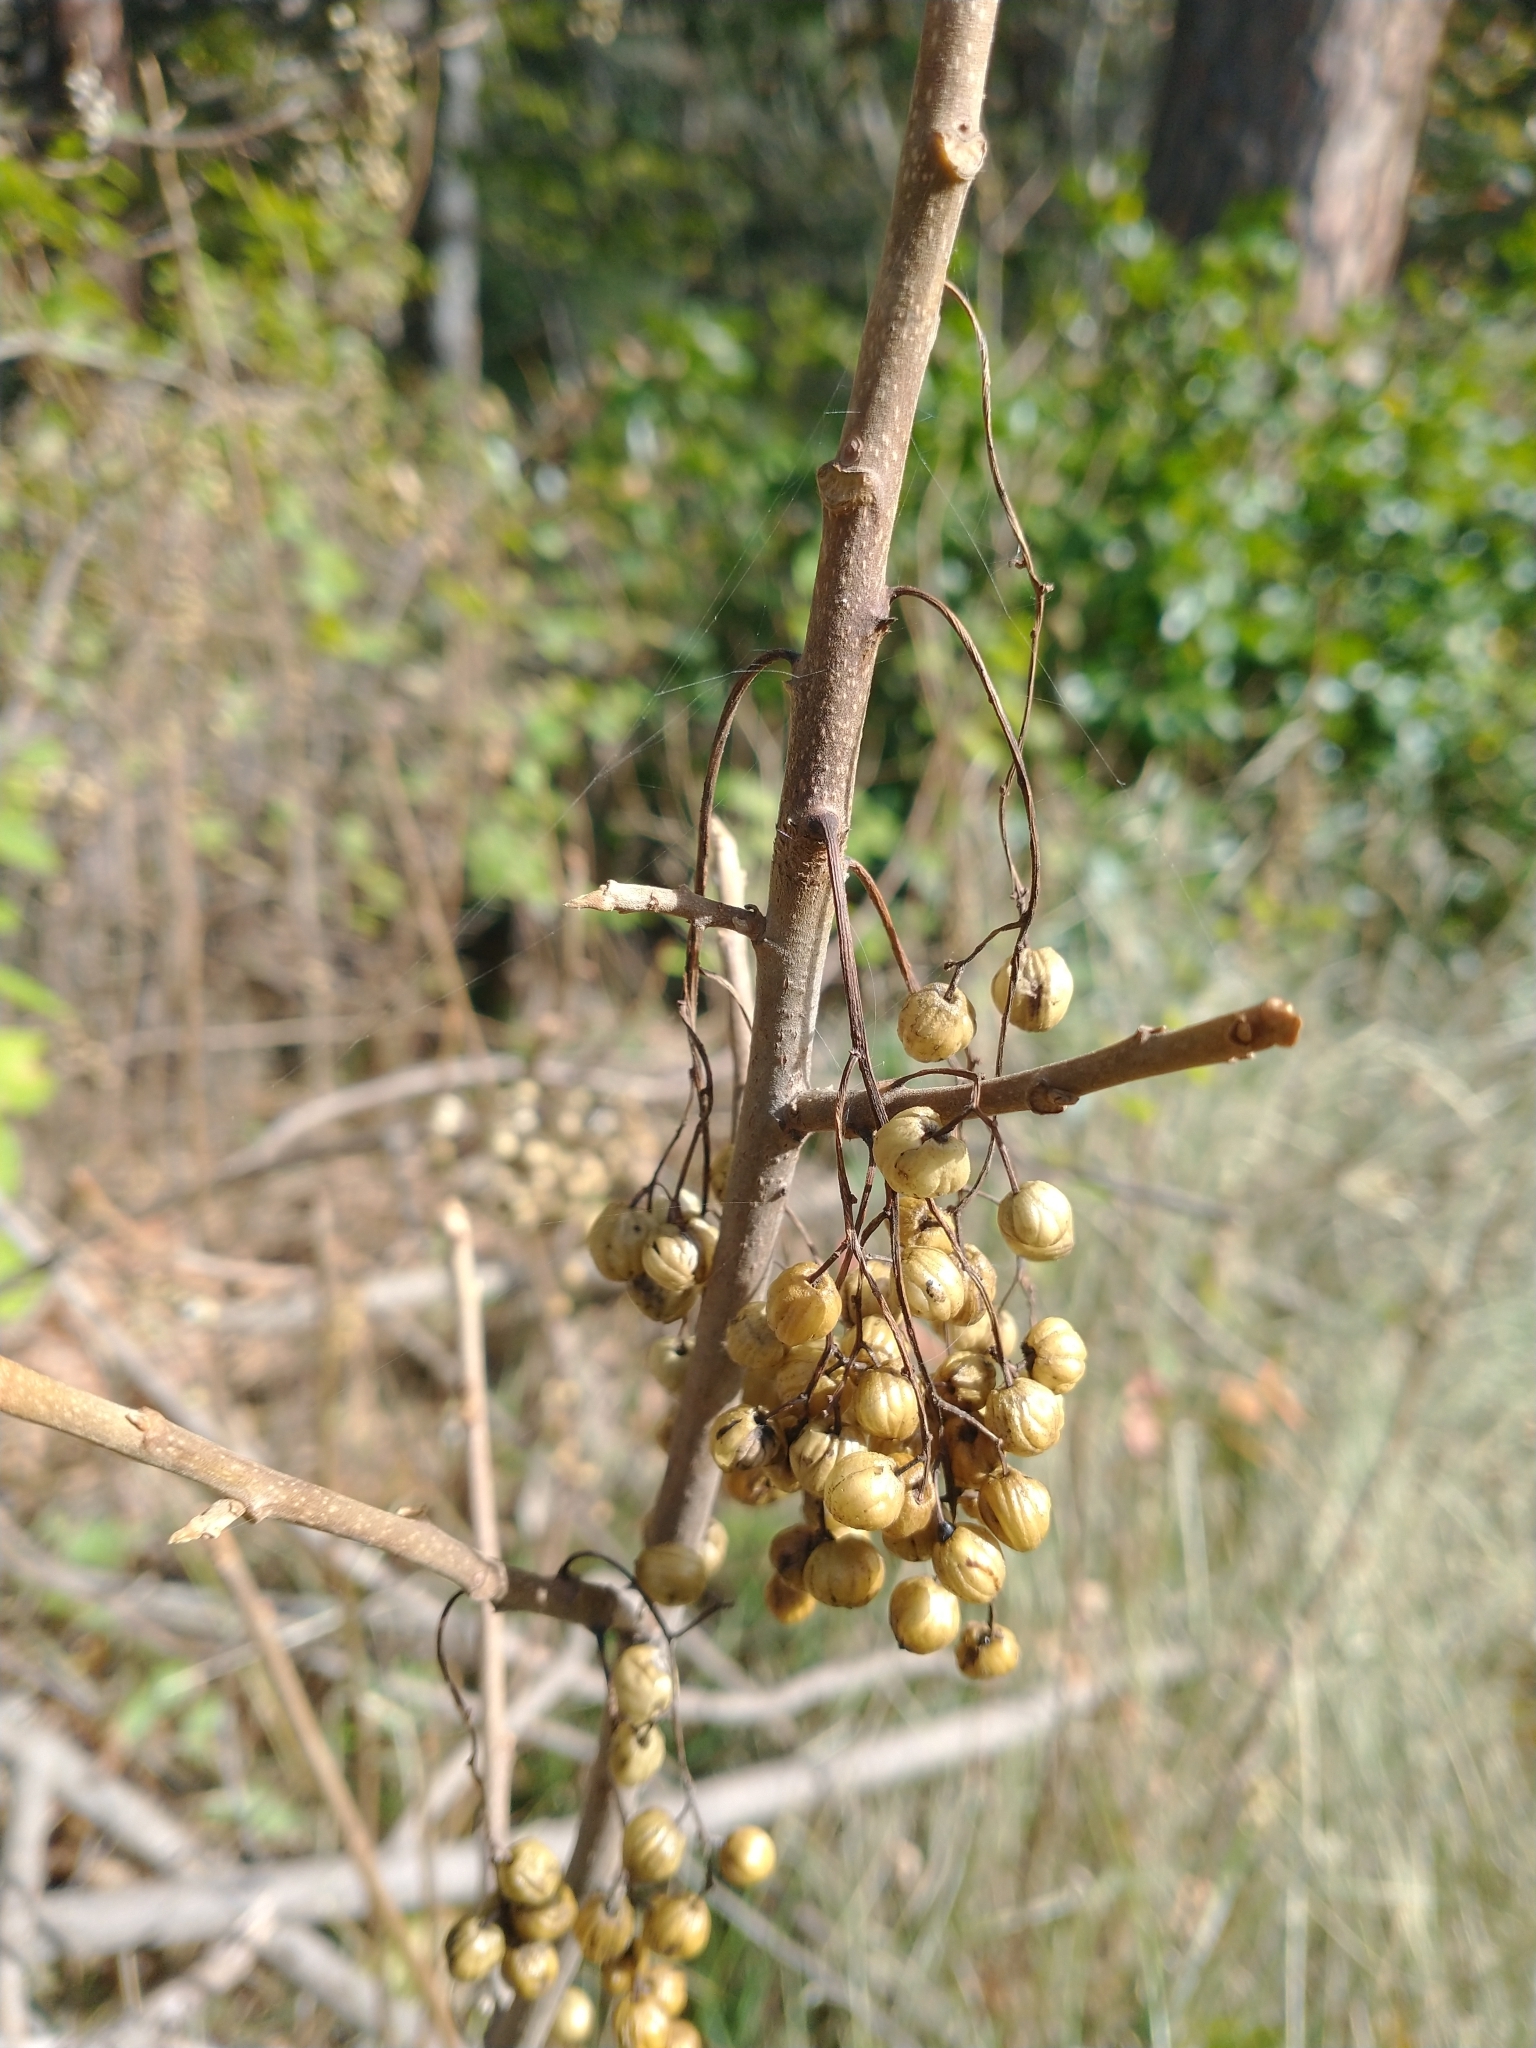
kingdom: Plantae
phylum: Tracheophyta
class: Magnoliopsida
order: Sapindales
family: Anacardiaceae
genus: Toxicodendron
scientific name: Toxicodendron diversilobum
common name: Pacific poison-oak
